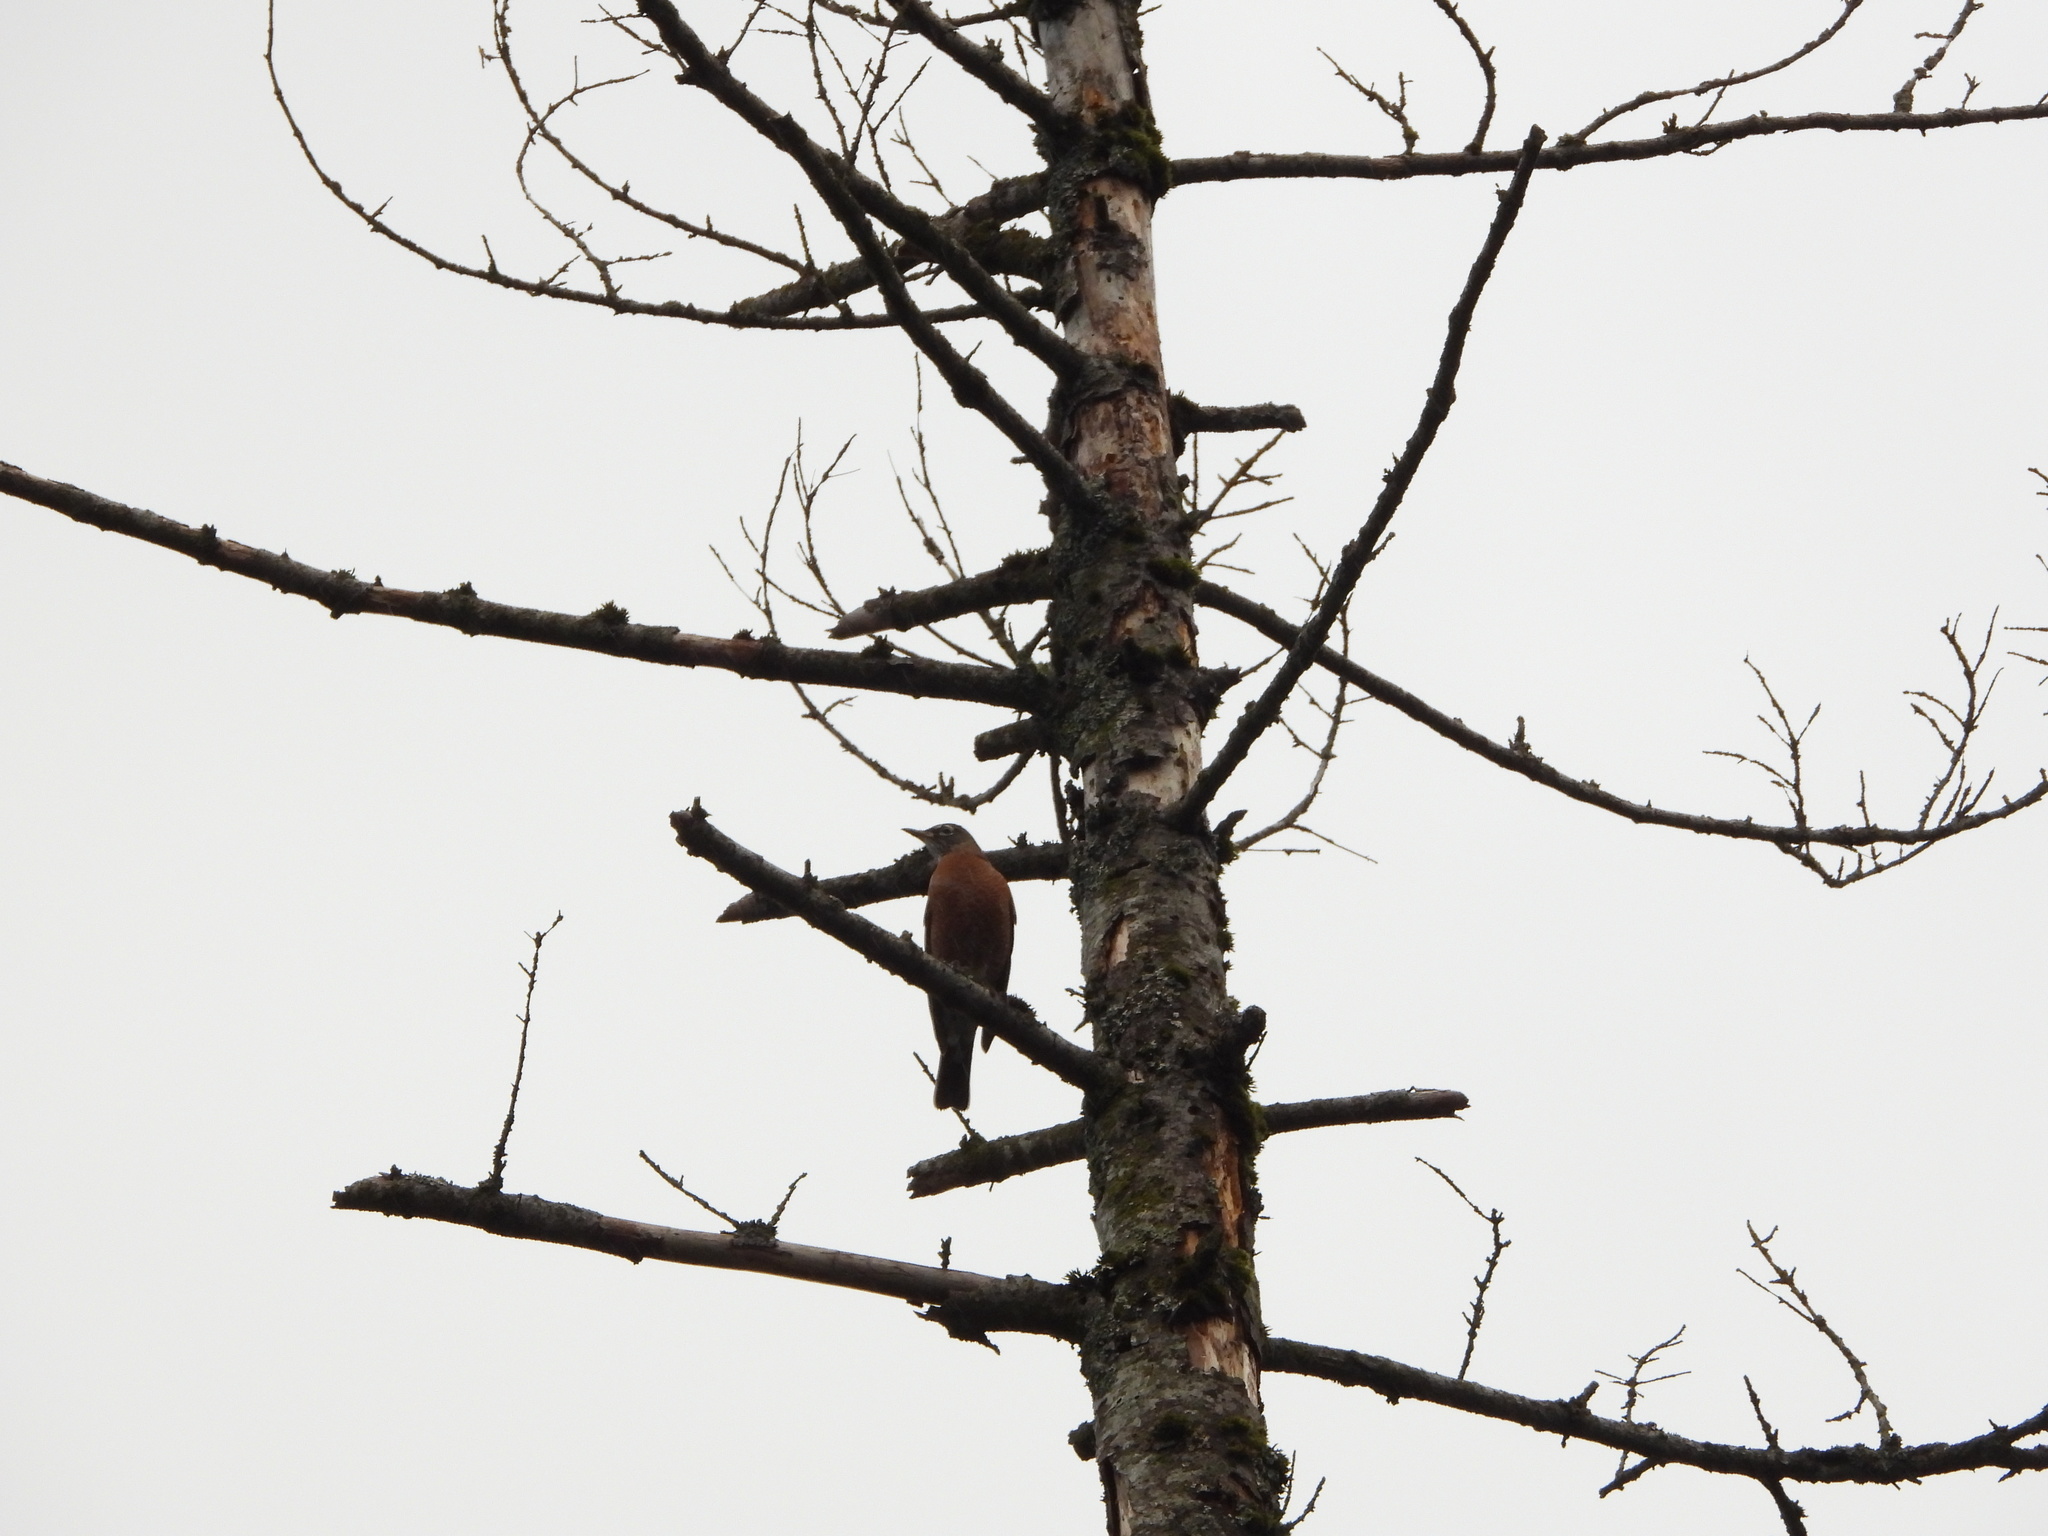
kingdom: Animalia
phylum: Chordata
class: Aves
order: Passeriformes
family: Turdidae
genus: Turdus
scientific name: Turdus migratorius
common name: American robin
